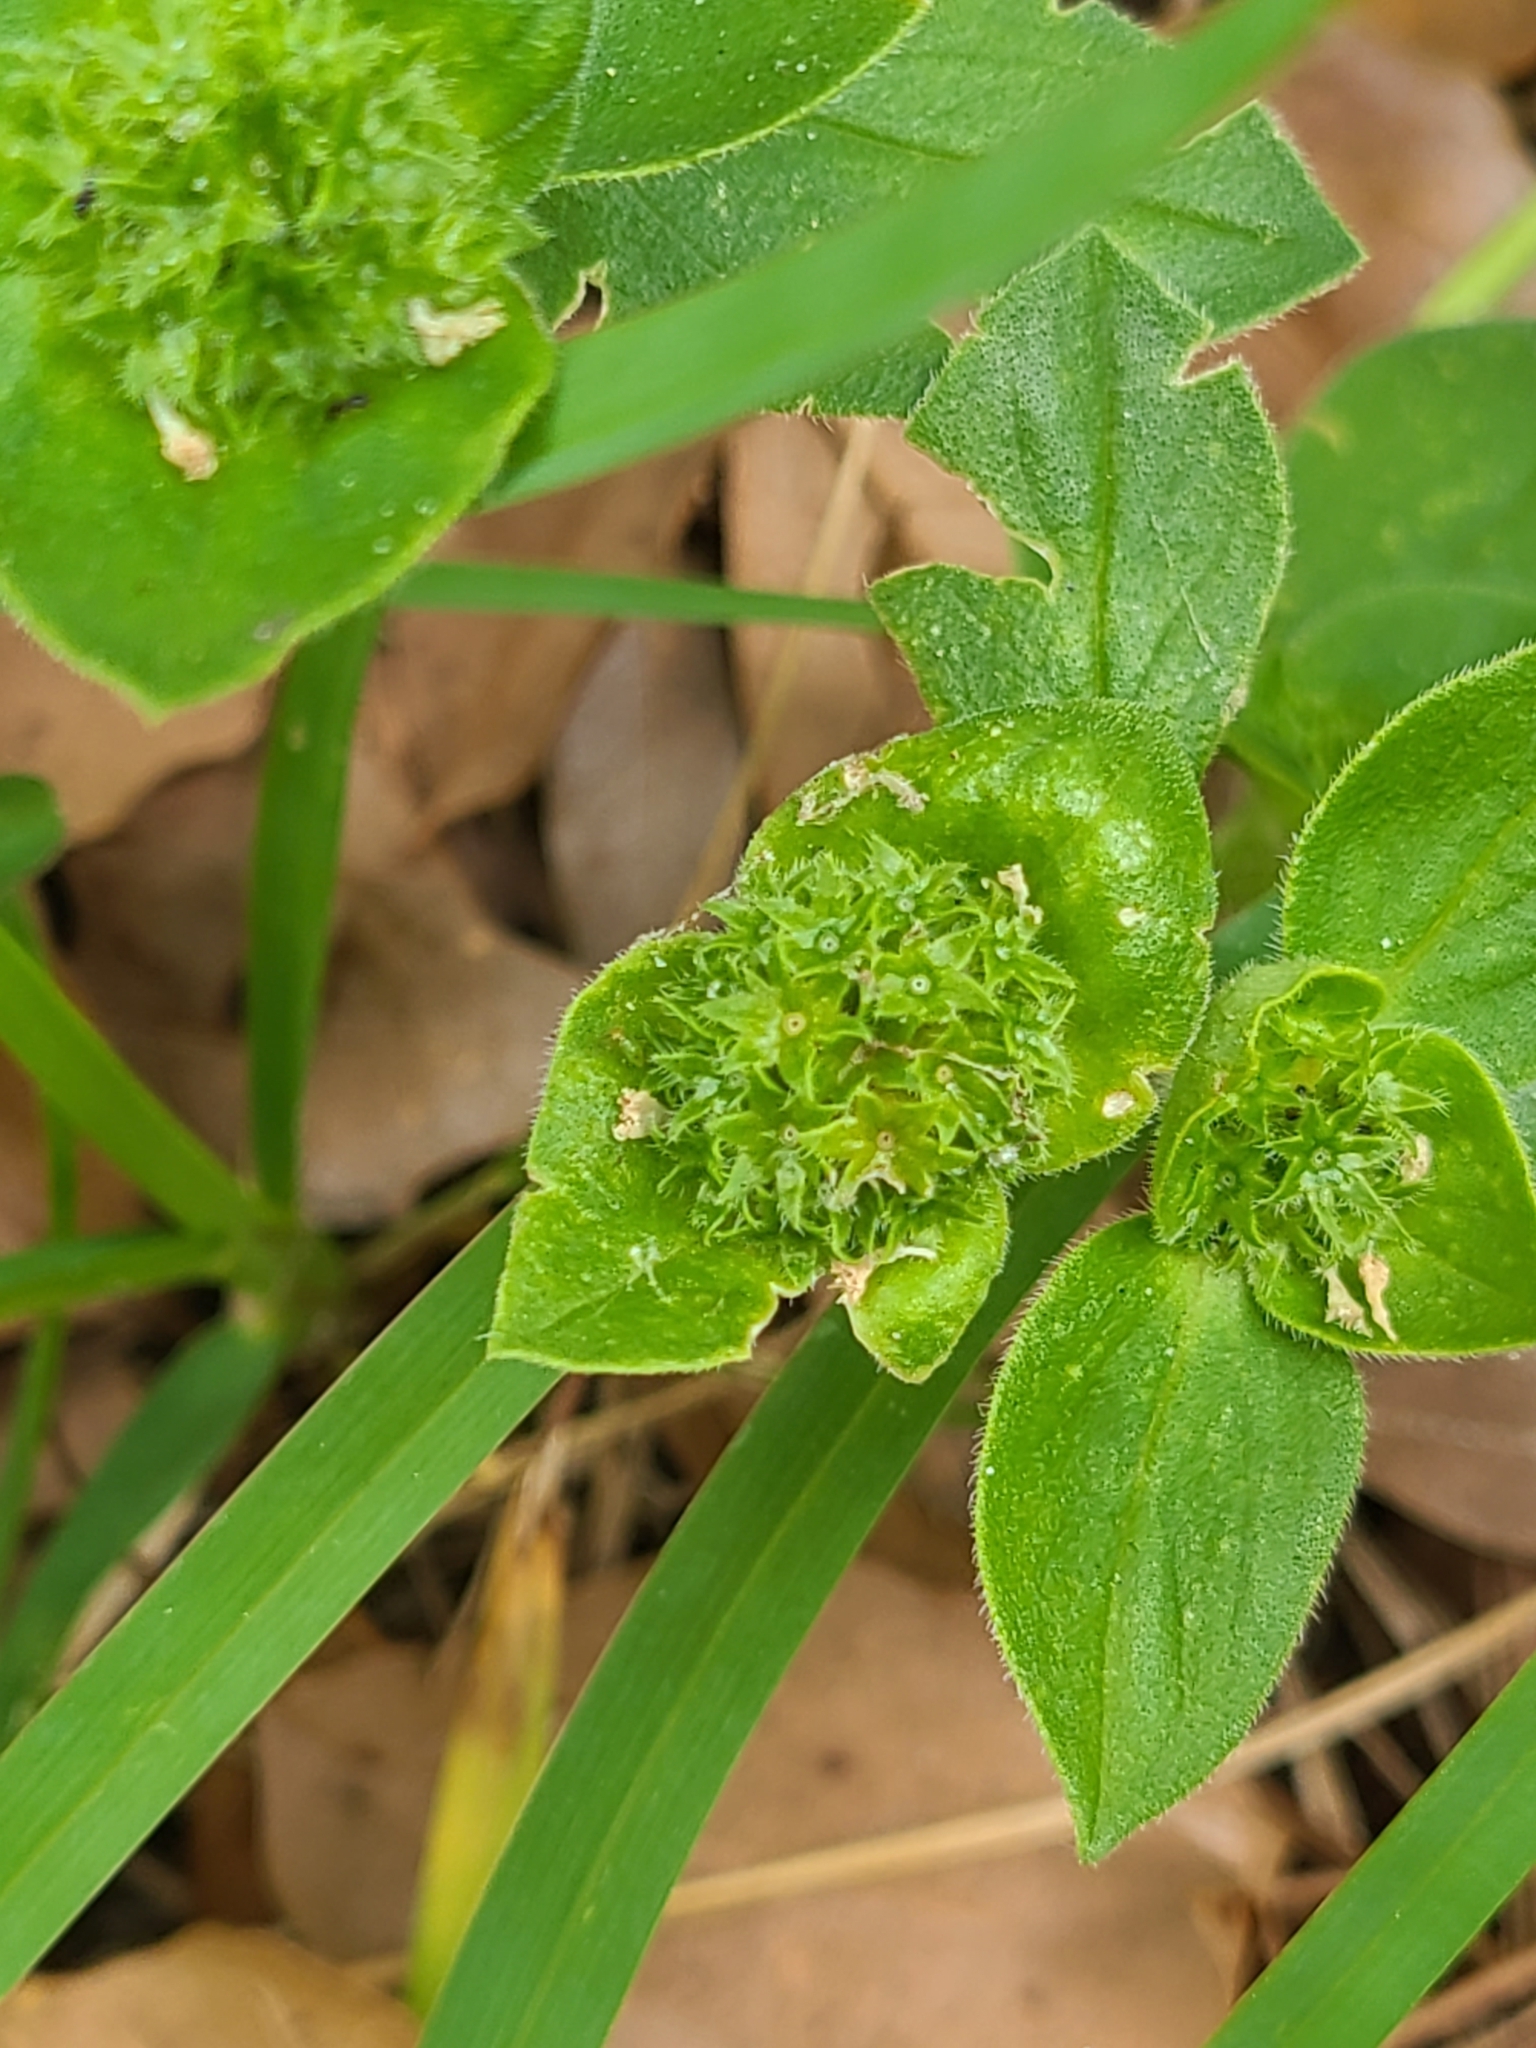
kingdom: Plantae
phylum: Tracheophyta
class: Magnoliopsida
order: Gentianales
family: Rubiaceae
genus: Richardia
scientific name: Richardia scabra
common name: Rough mexican clover
